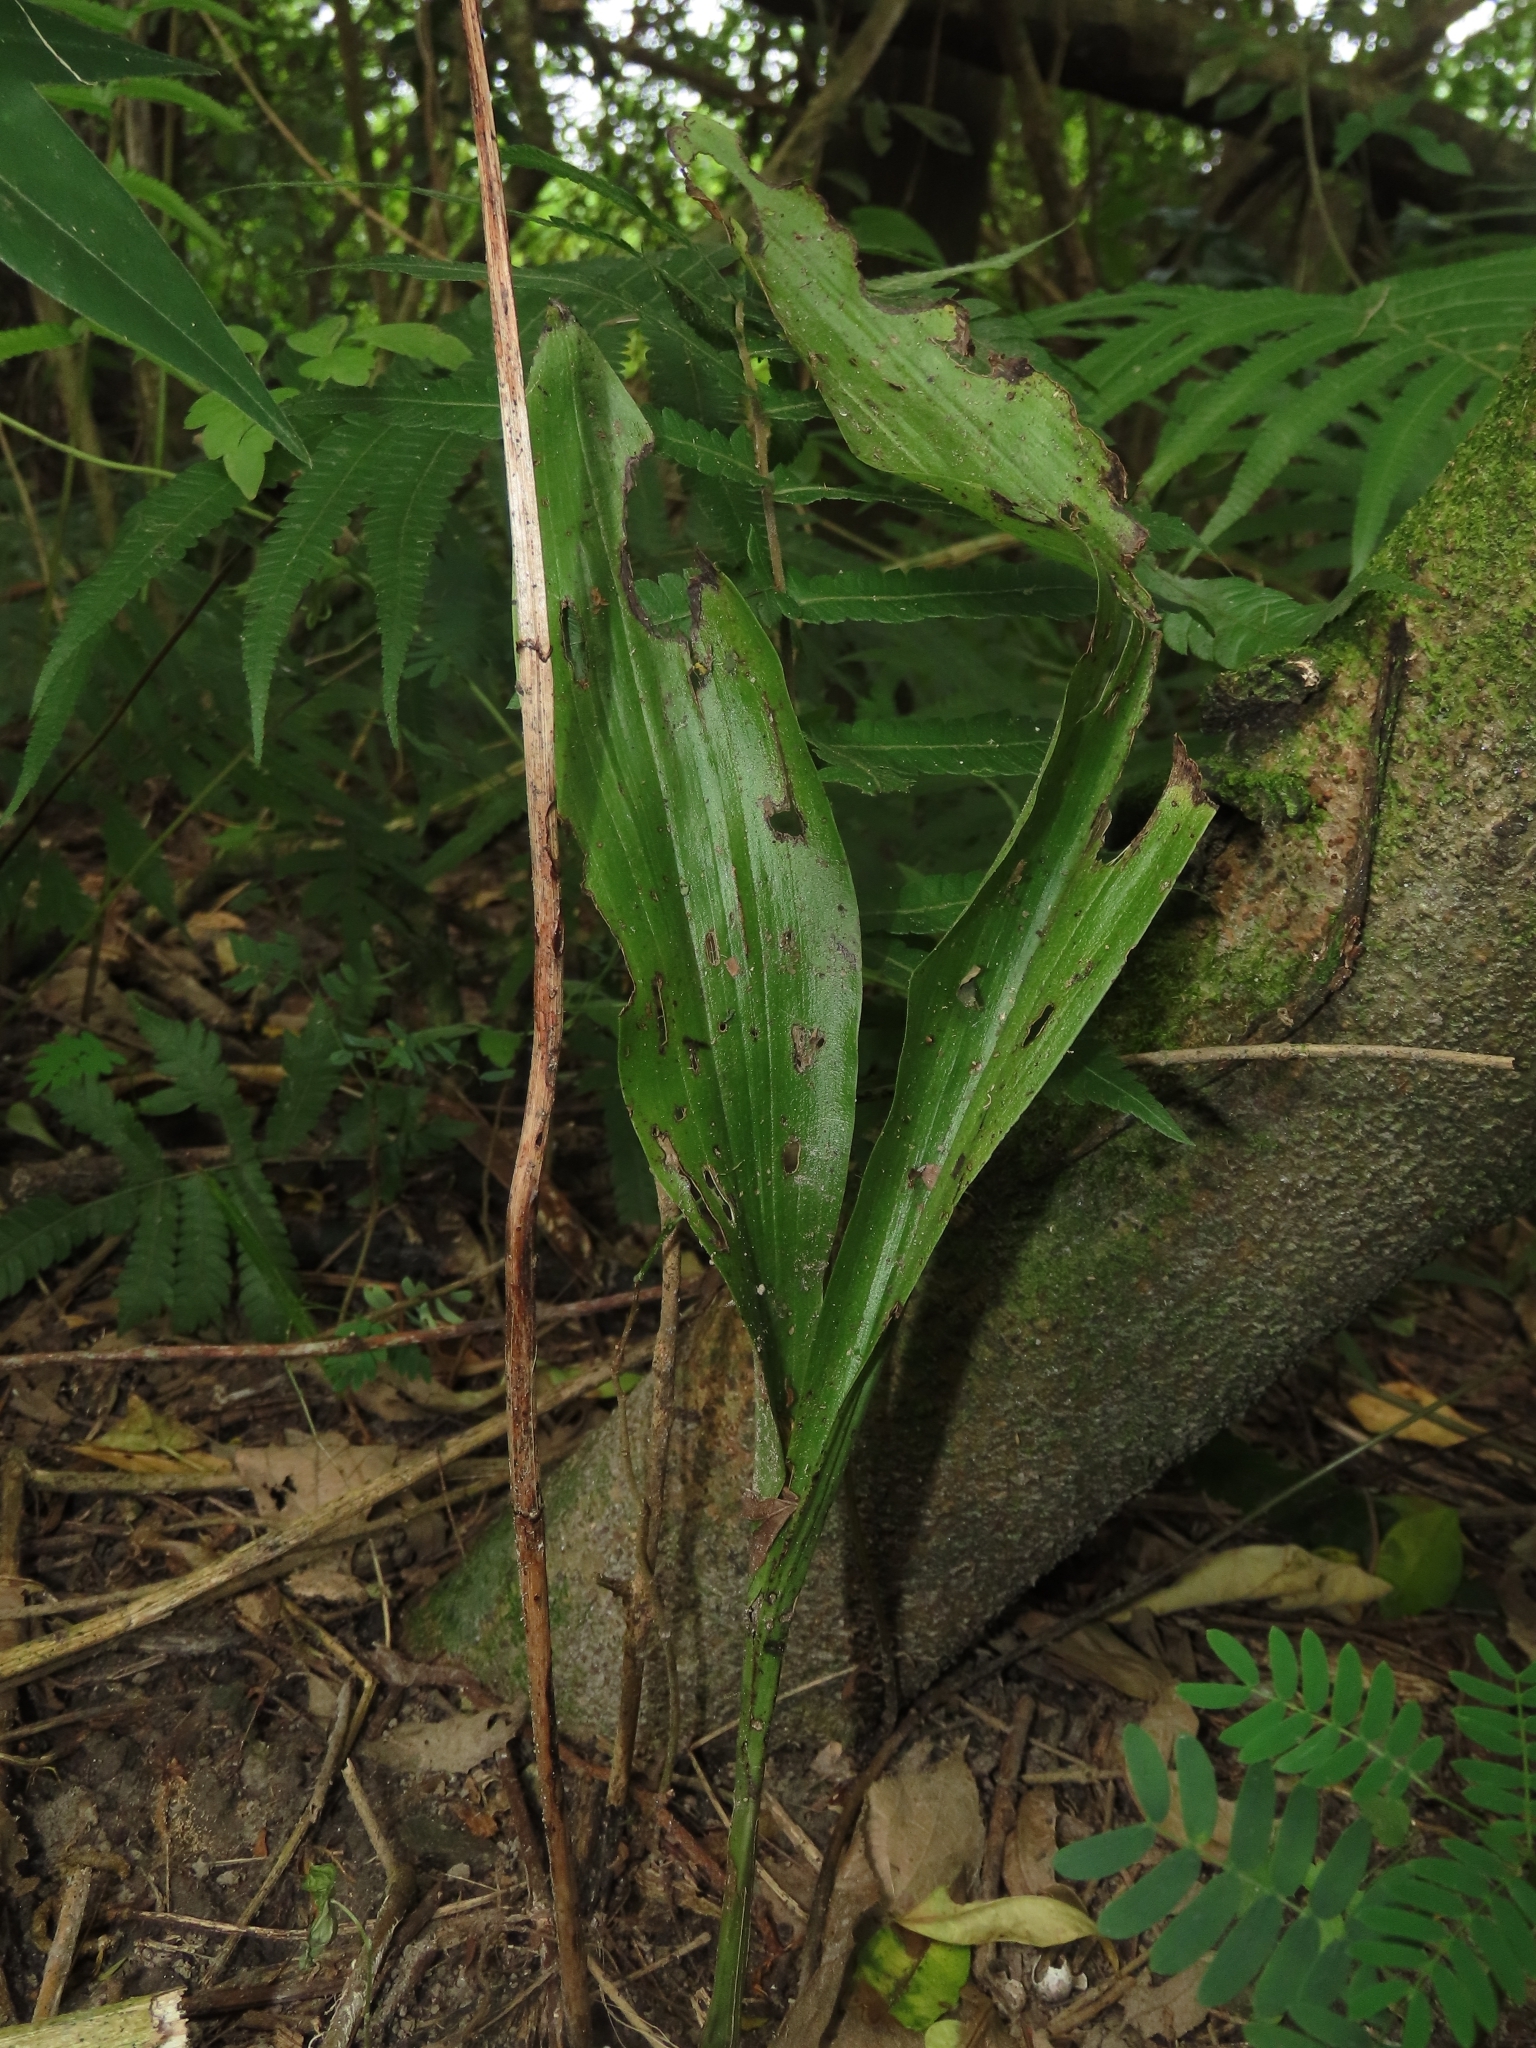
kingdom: Plantae
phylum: Tracheophyta
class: Liliopsida
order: Asparagales
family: Orchidaceae
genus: Eulophia
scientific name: Eulophia cernua
